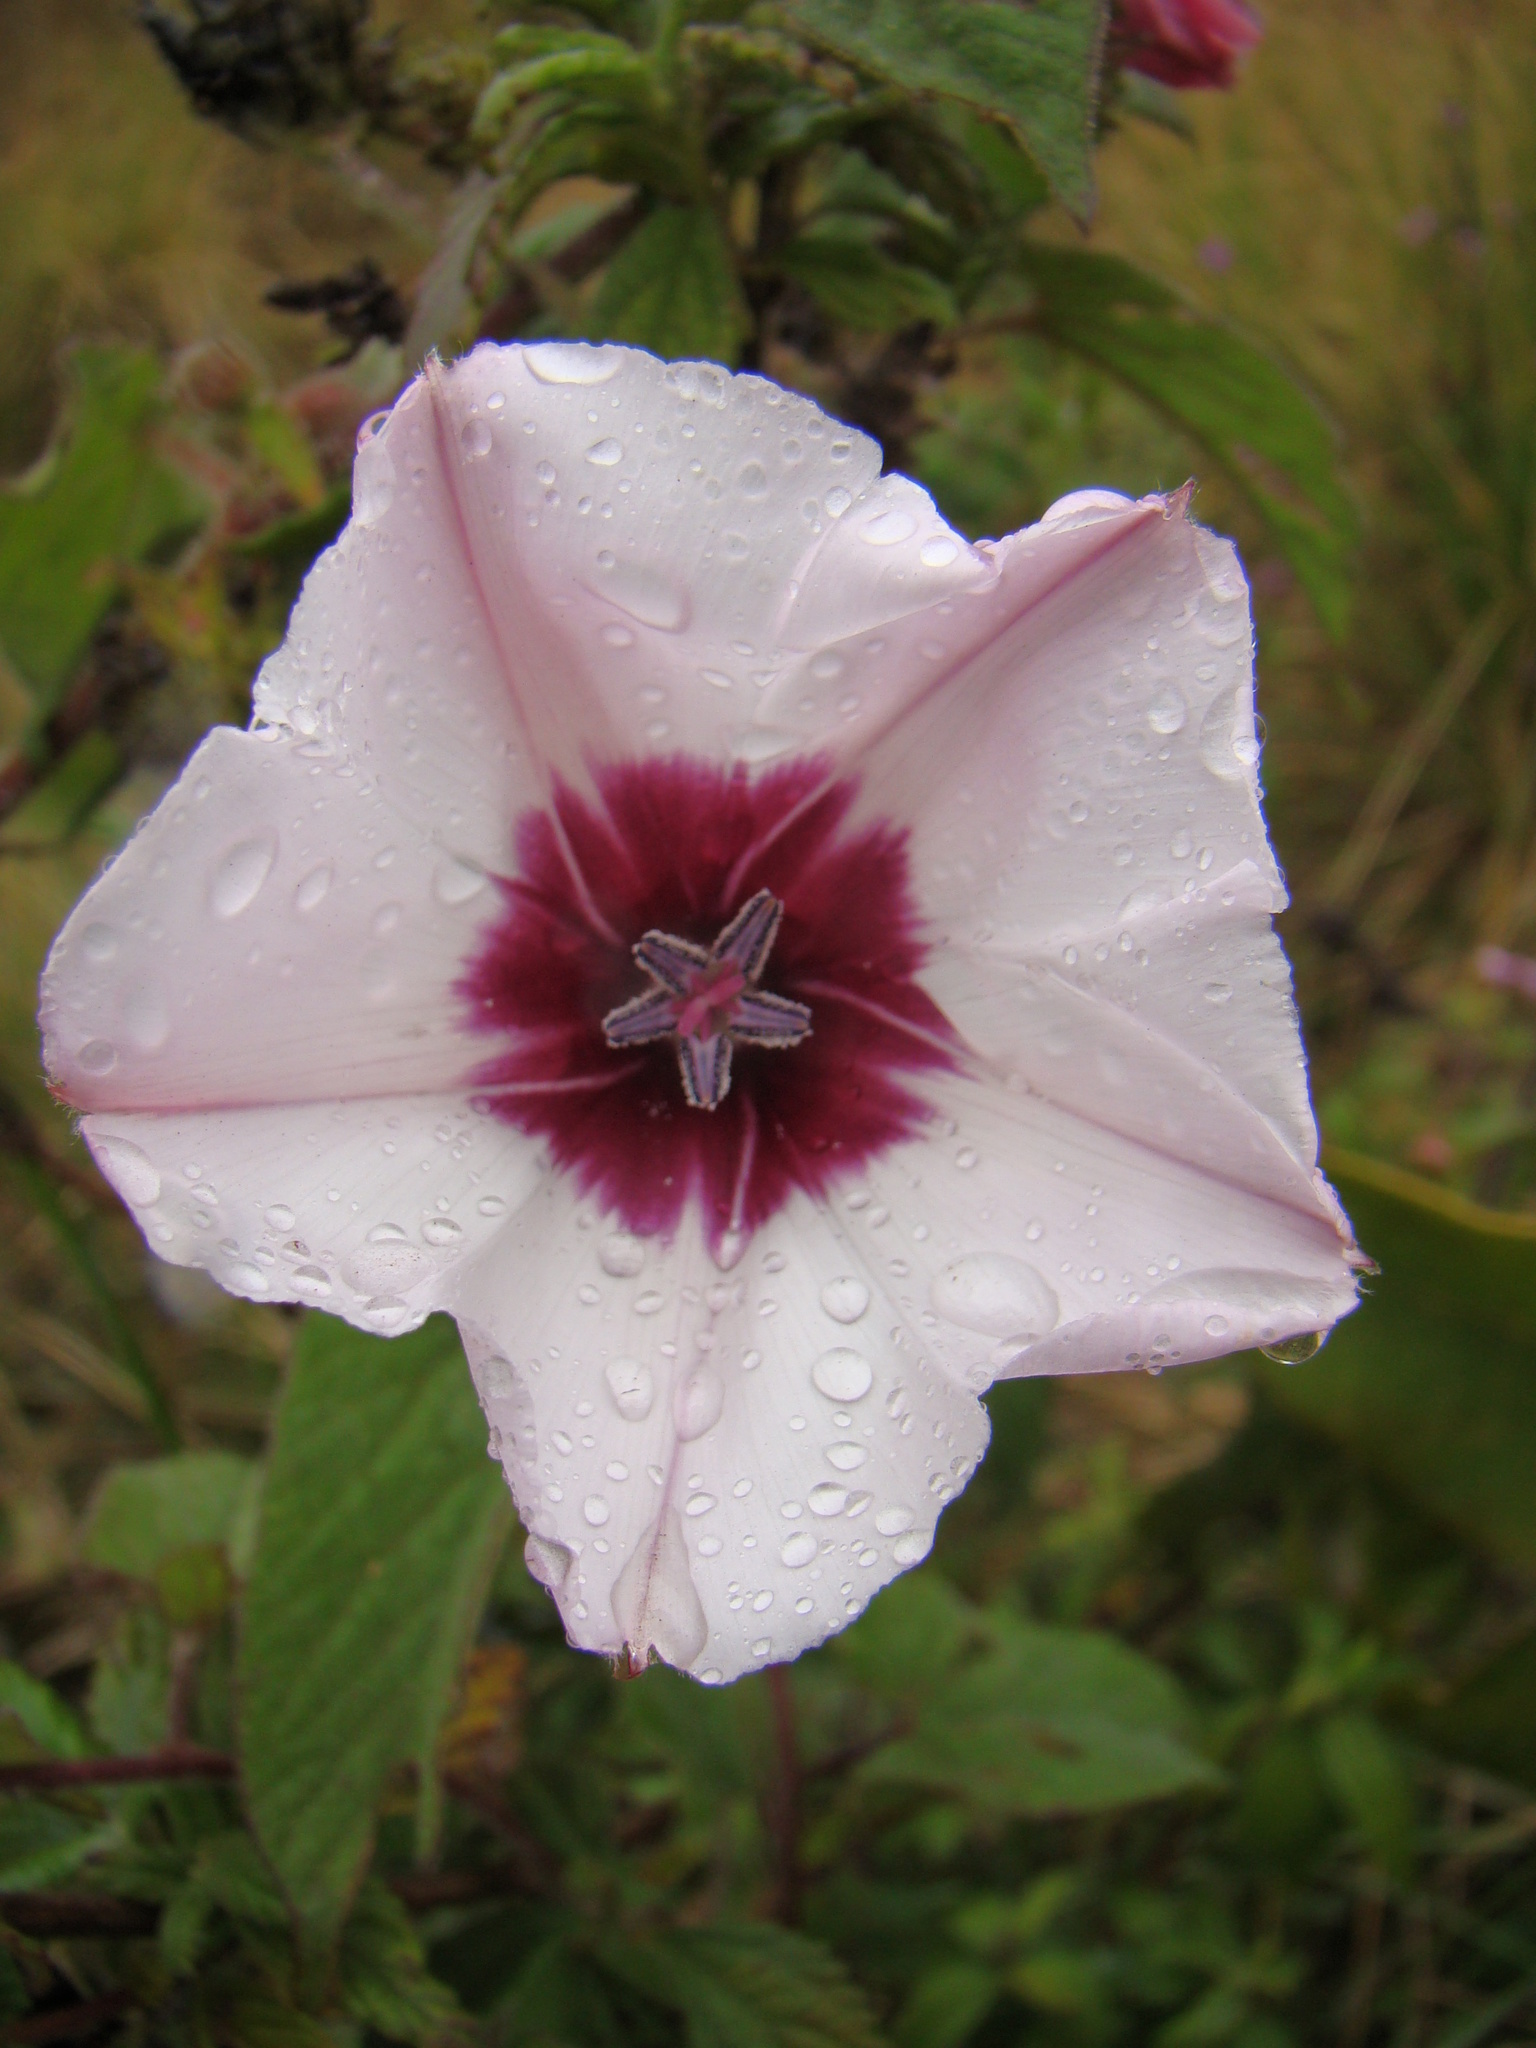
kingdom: Plantae
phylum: Tracheophyta
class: Magnoliopsida
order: Solanales
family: Convolvulaceae
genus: Convolvulus
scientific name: Convolvulus kilimandschari
